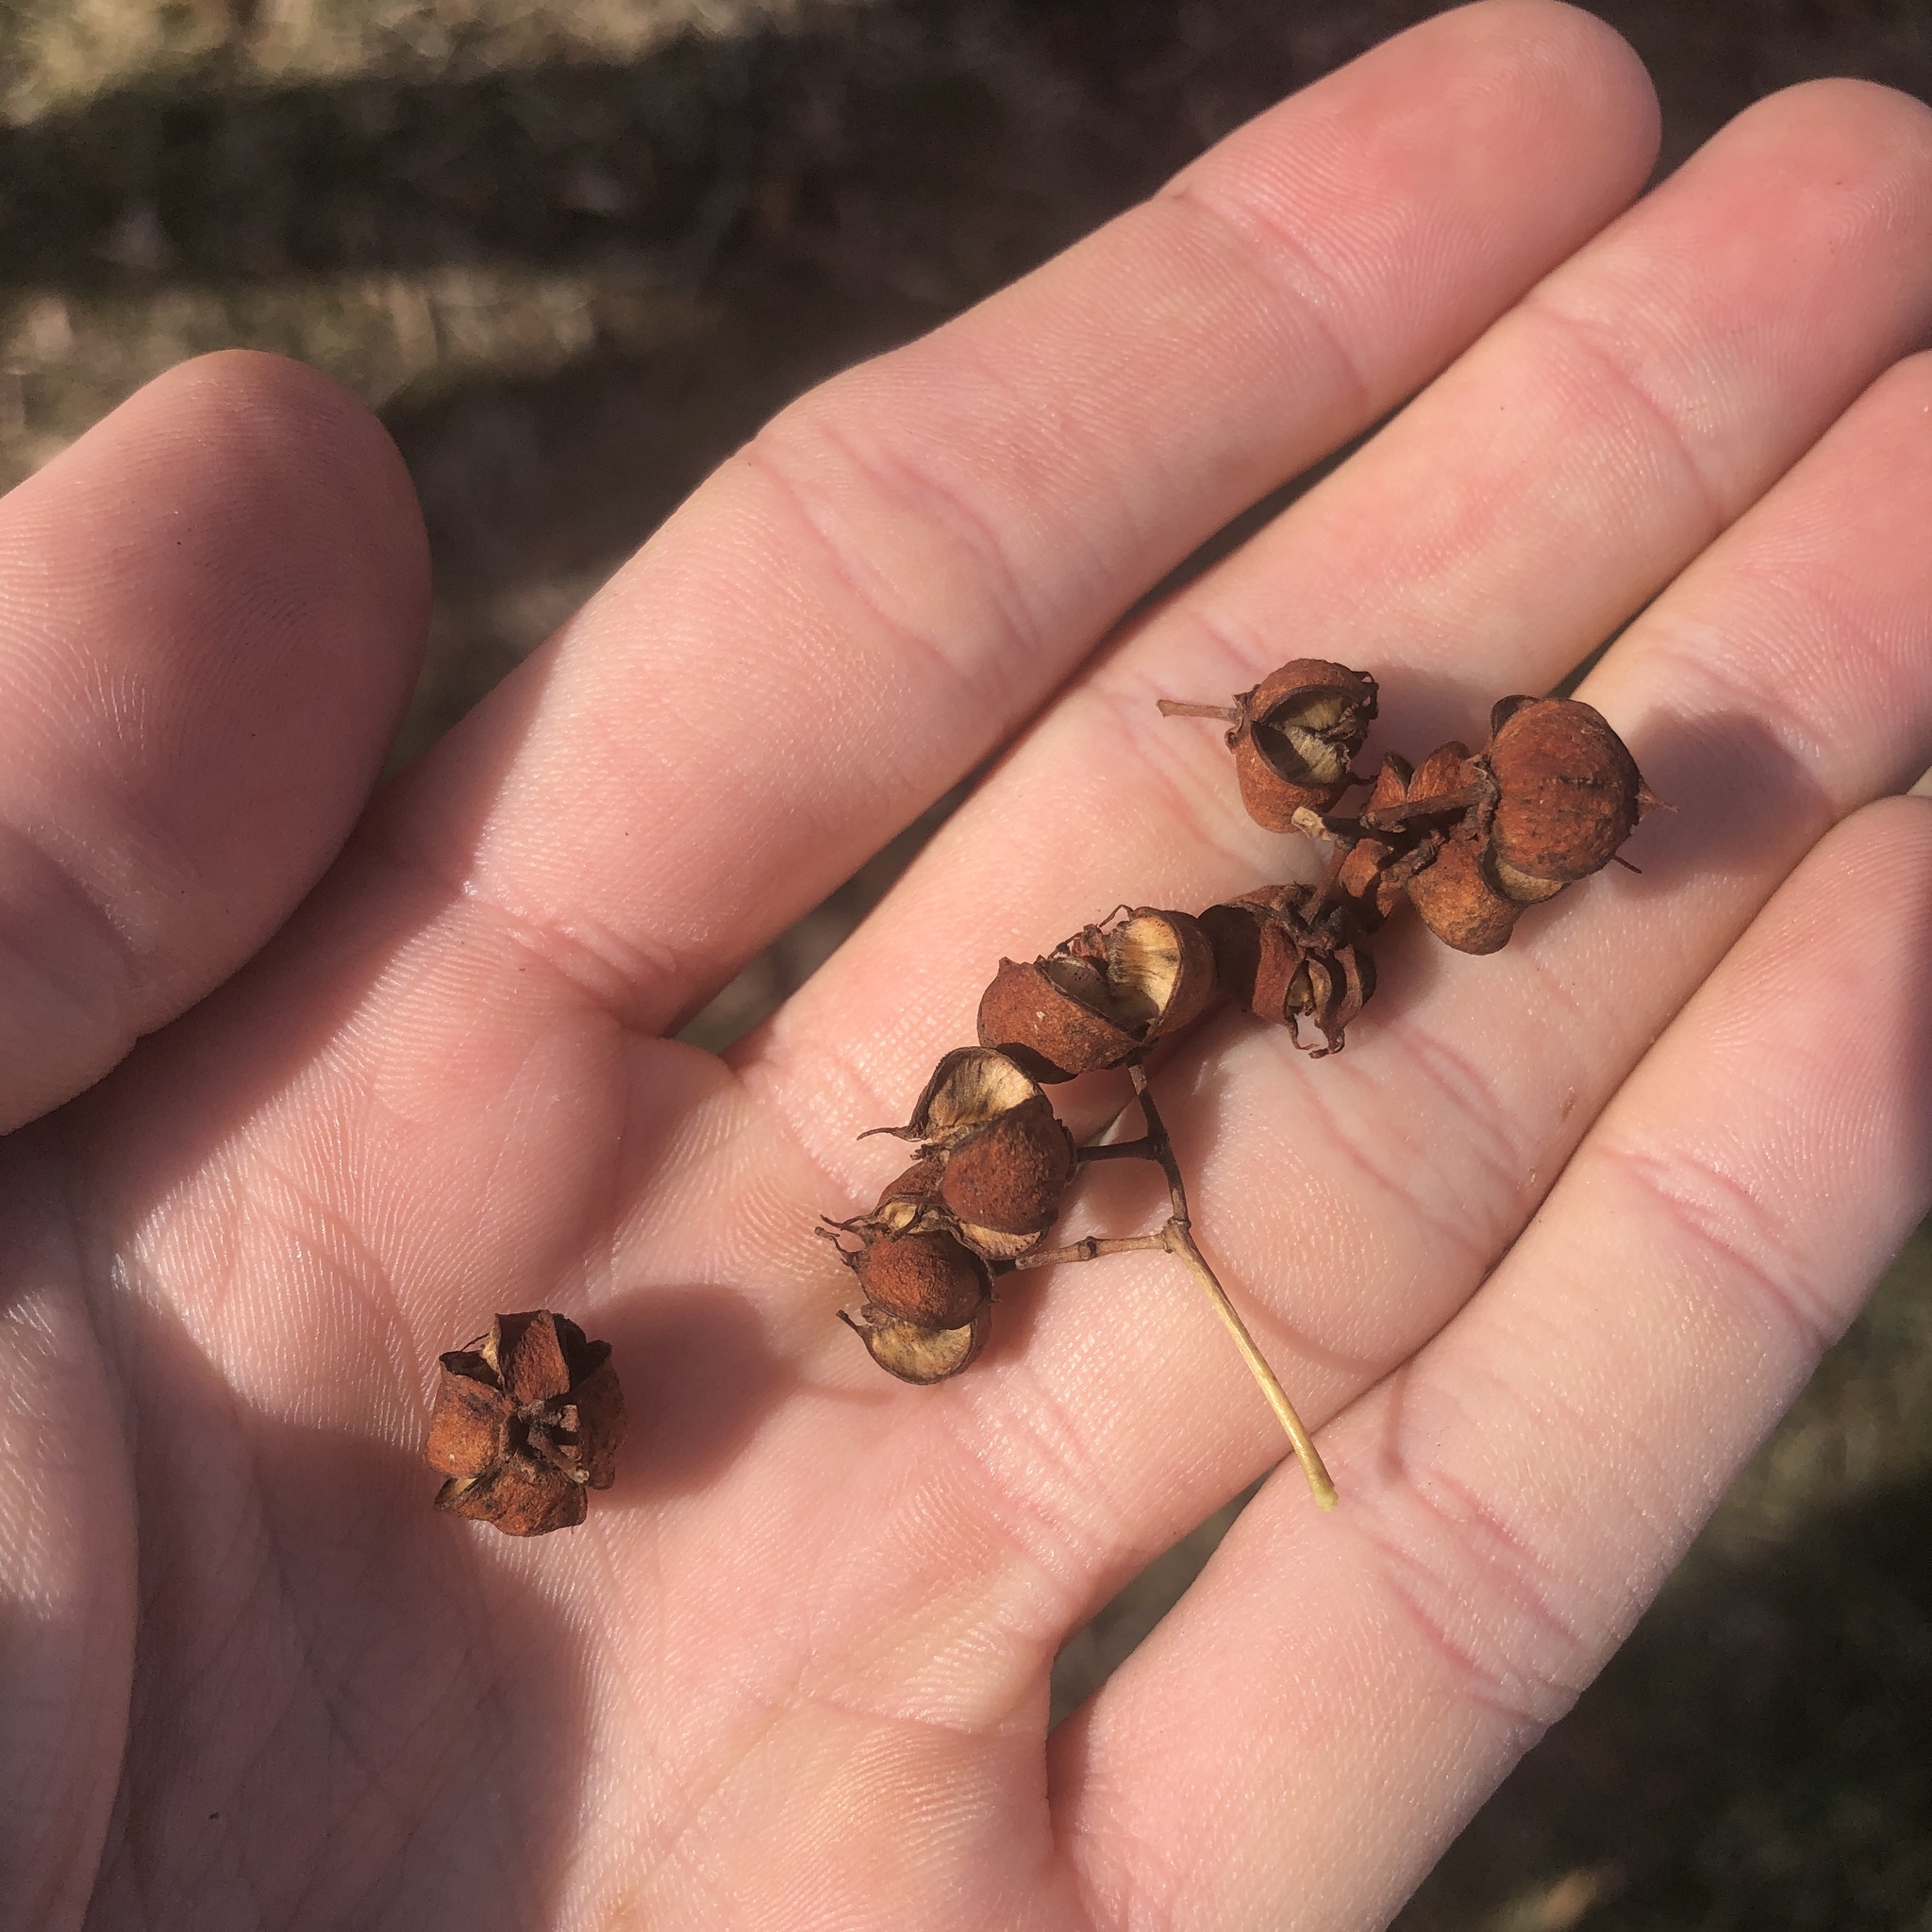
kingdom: Plantae
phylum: Tracheophyta
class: Magnoliopsida
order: Celastrales
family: Celastraceae
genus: Euonymus
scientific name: Euonymus fortunei
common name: Climbing euonymus
